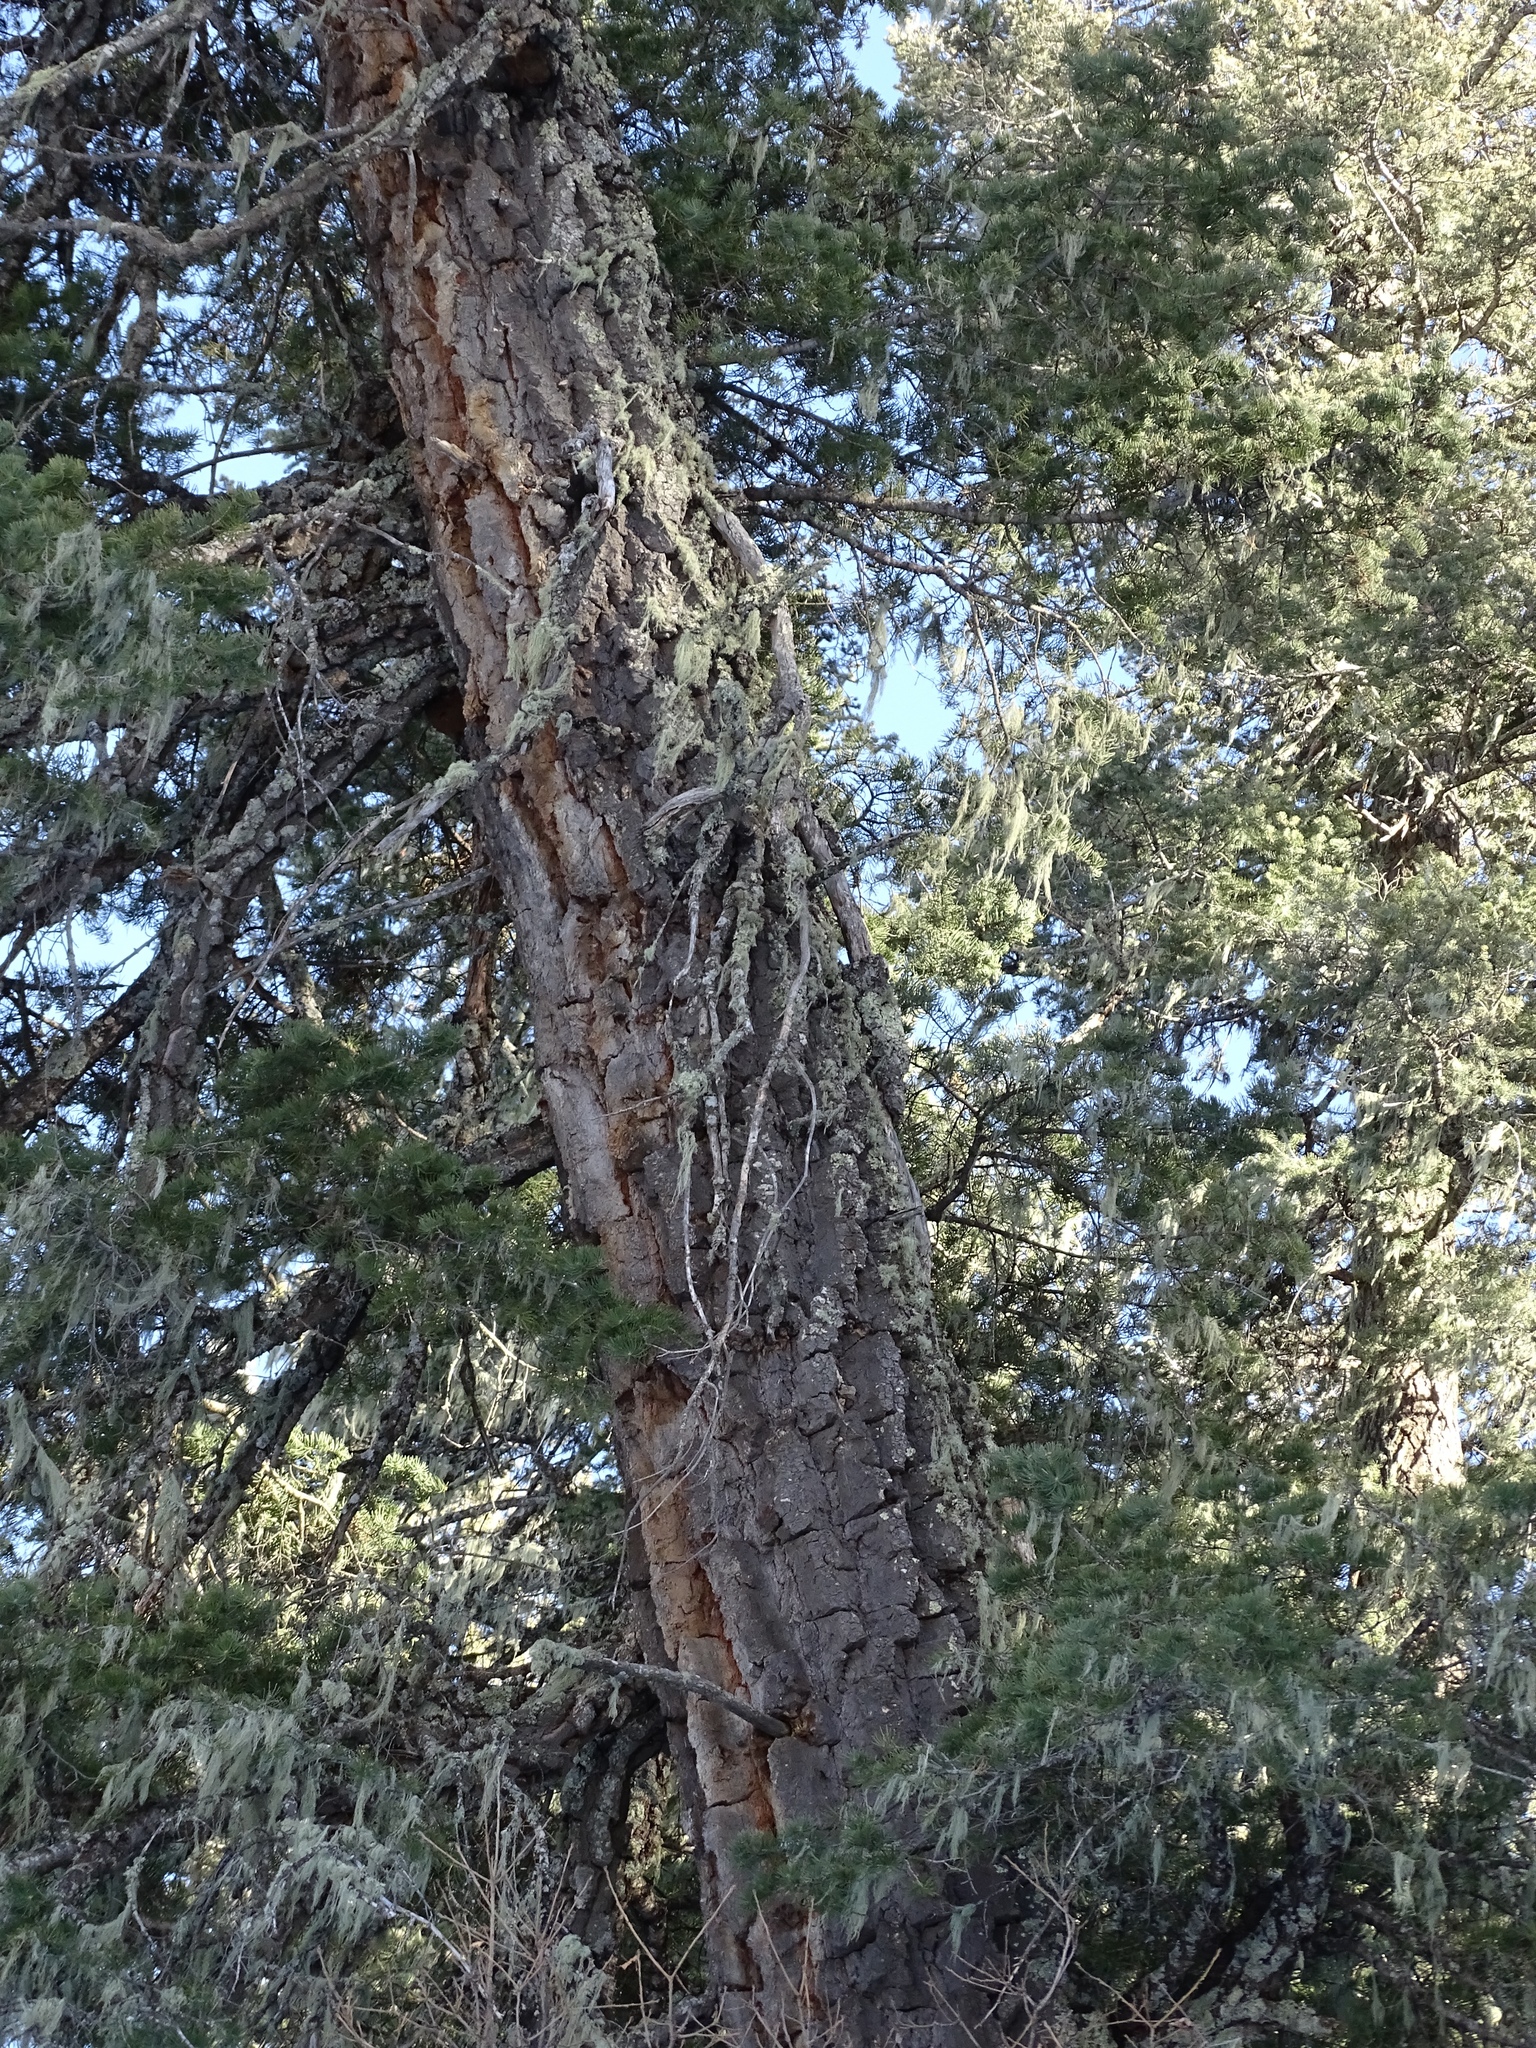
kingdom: Plantae
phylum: Tracheophyta
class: Pinopsida
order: Pinales
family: Pinaceae
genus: Pseudotsuga
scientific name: Pseudotsuga menziesii
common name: Douglas fir
